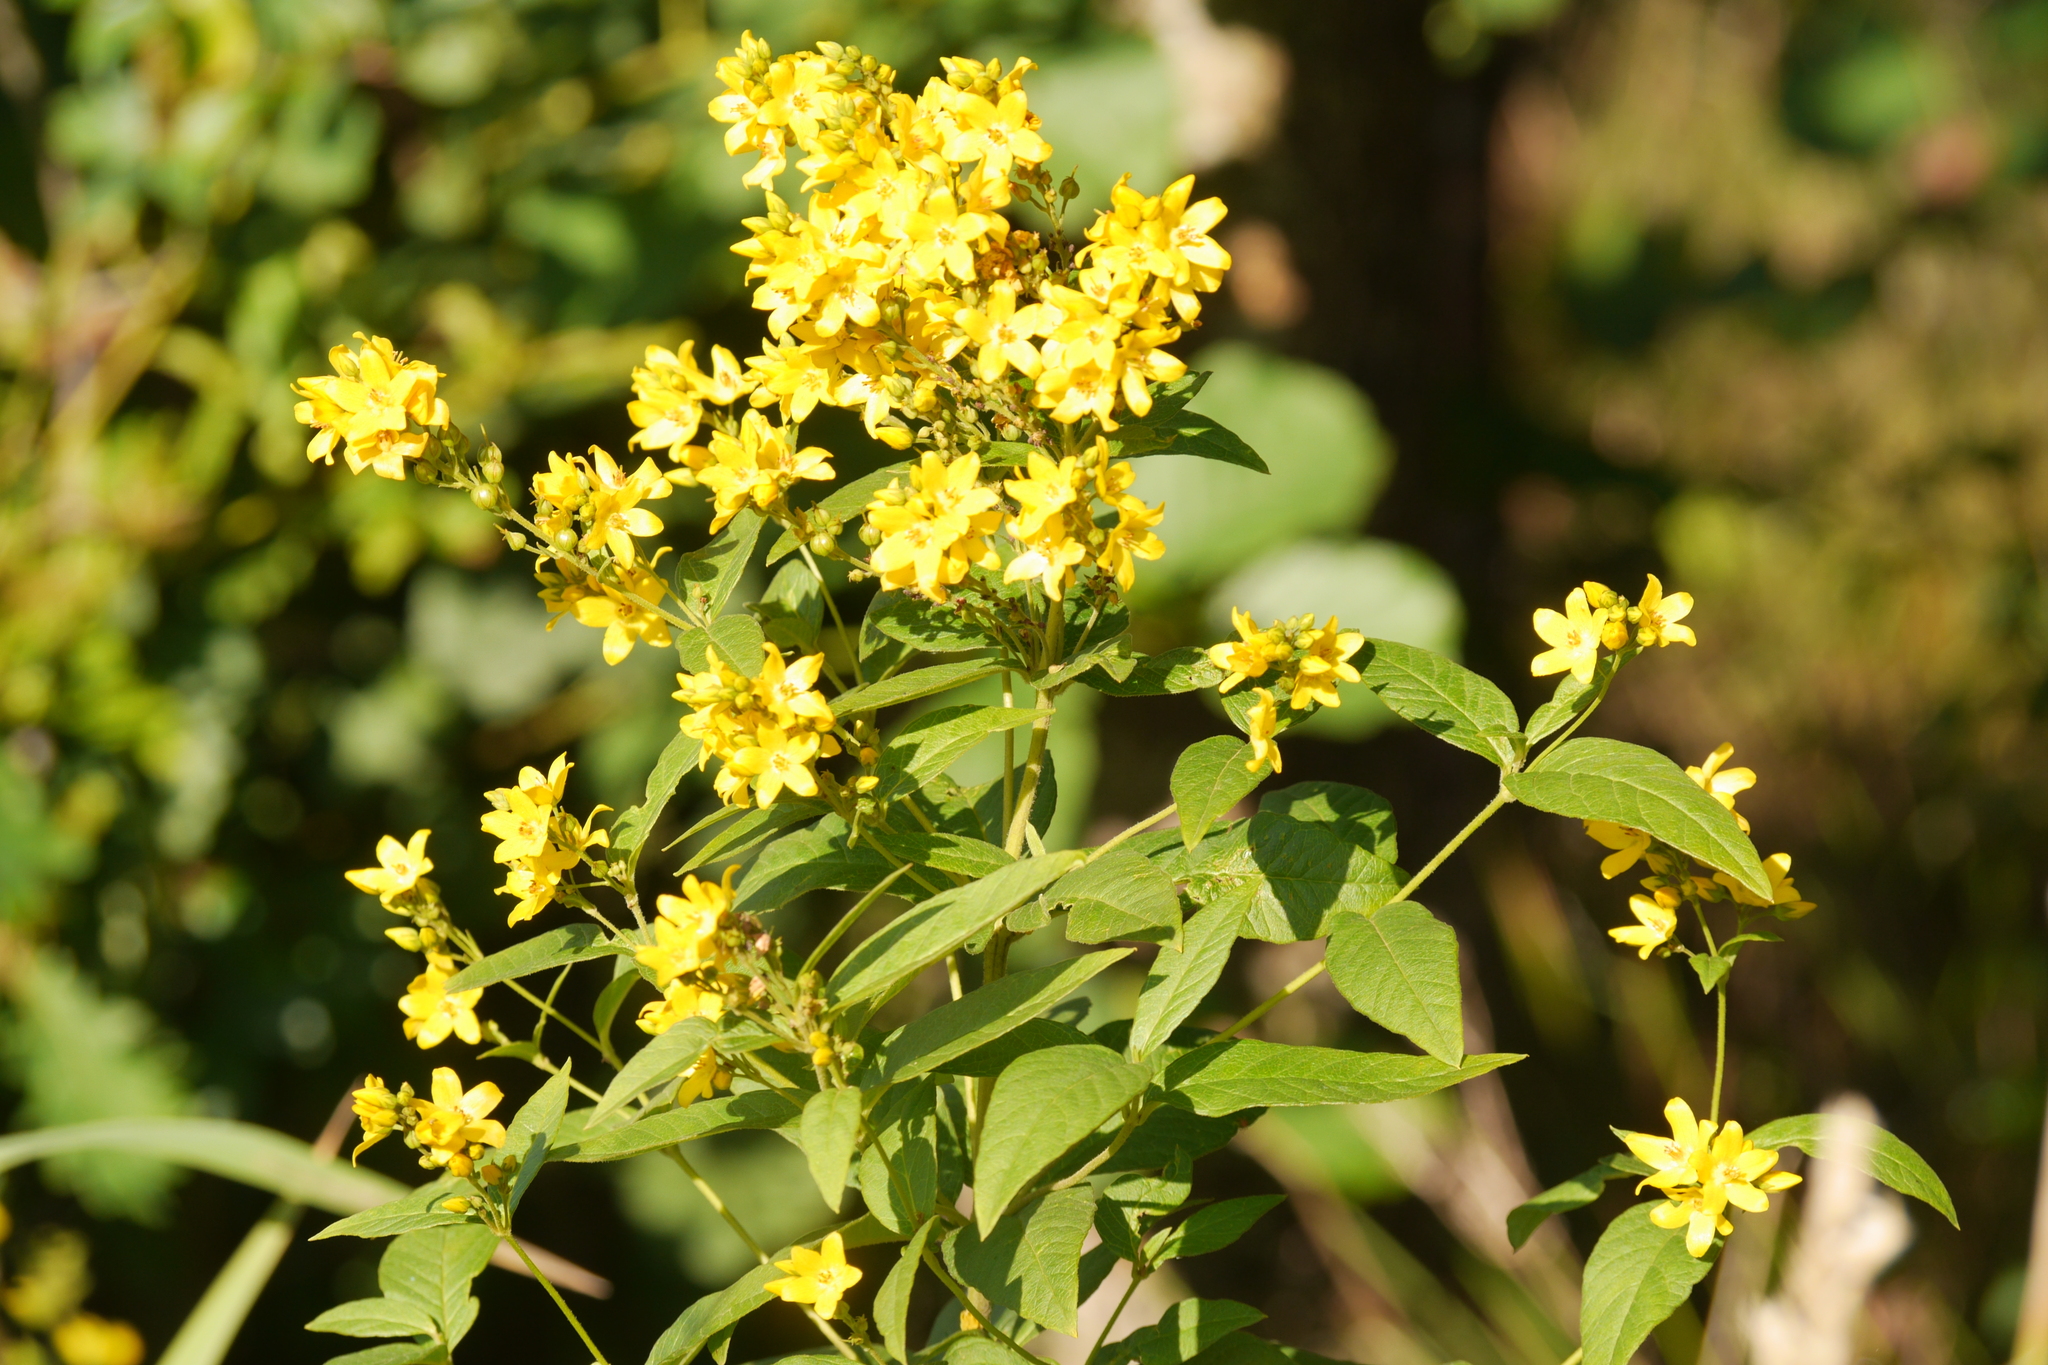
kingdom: Plantae
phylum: Tracheophyta
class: Magnoliopsida
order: Ericales
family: Primulaceae
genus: Lysimachia
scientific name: Lysimachia vulgaris
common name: Yellow loosestrife
